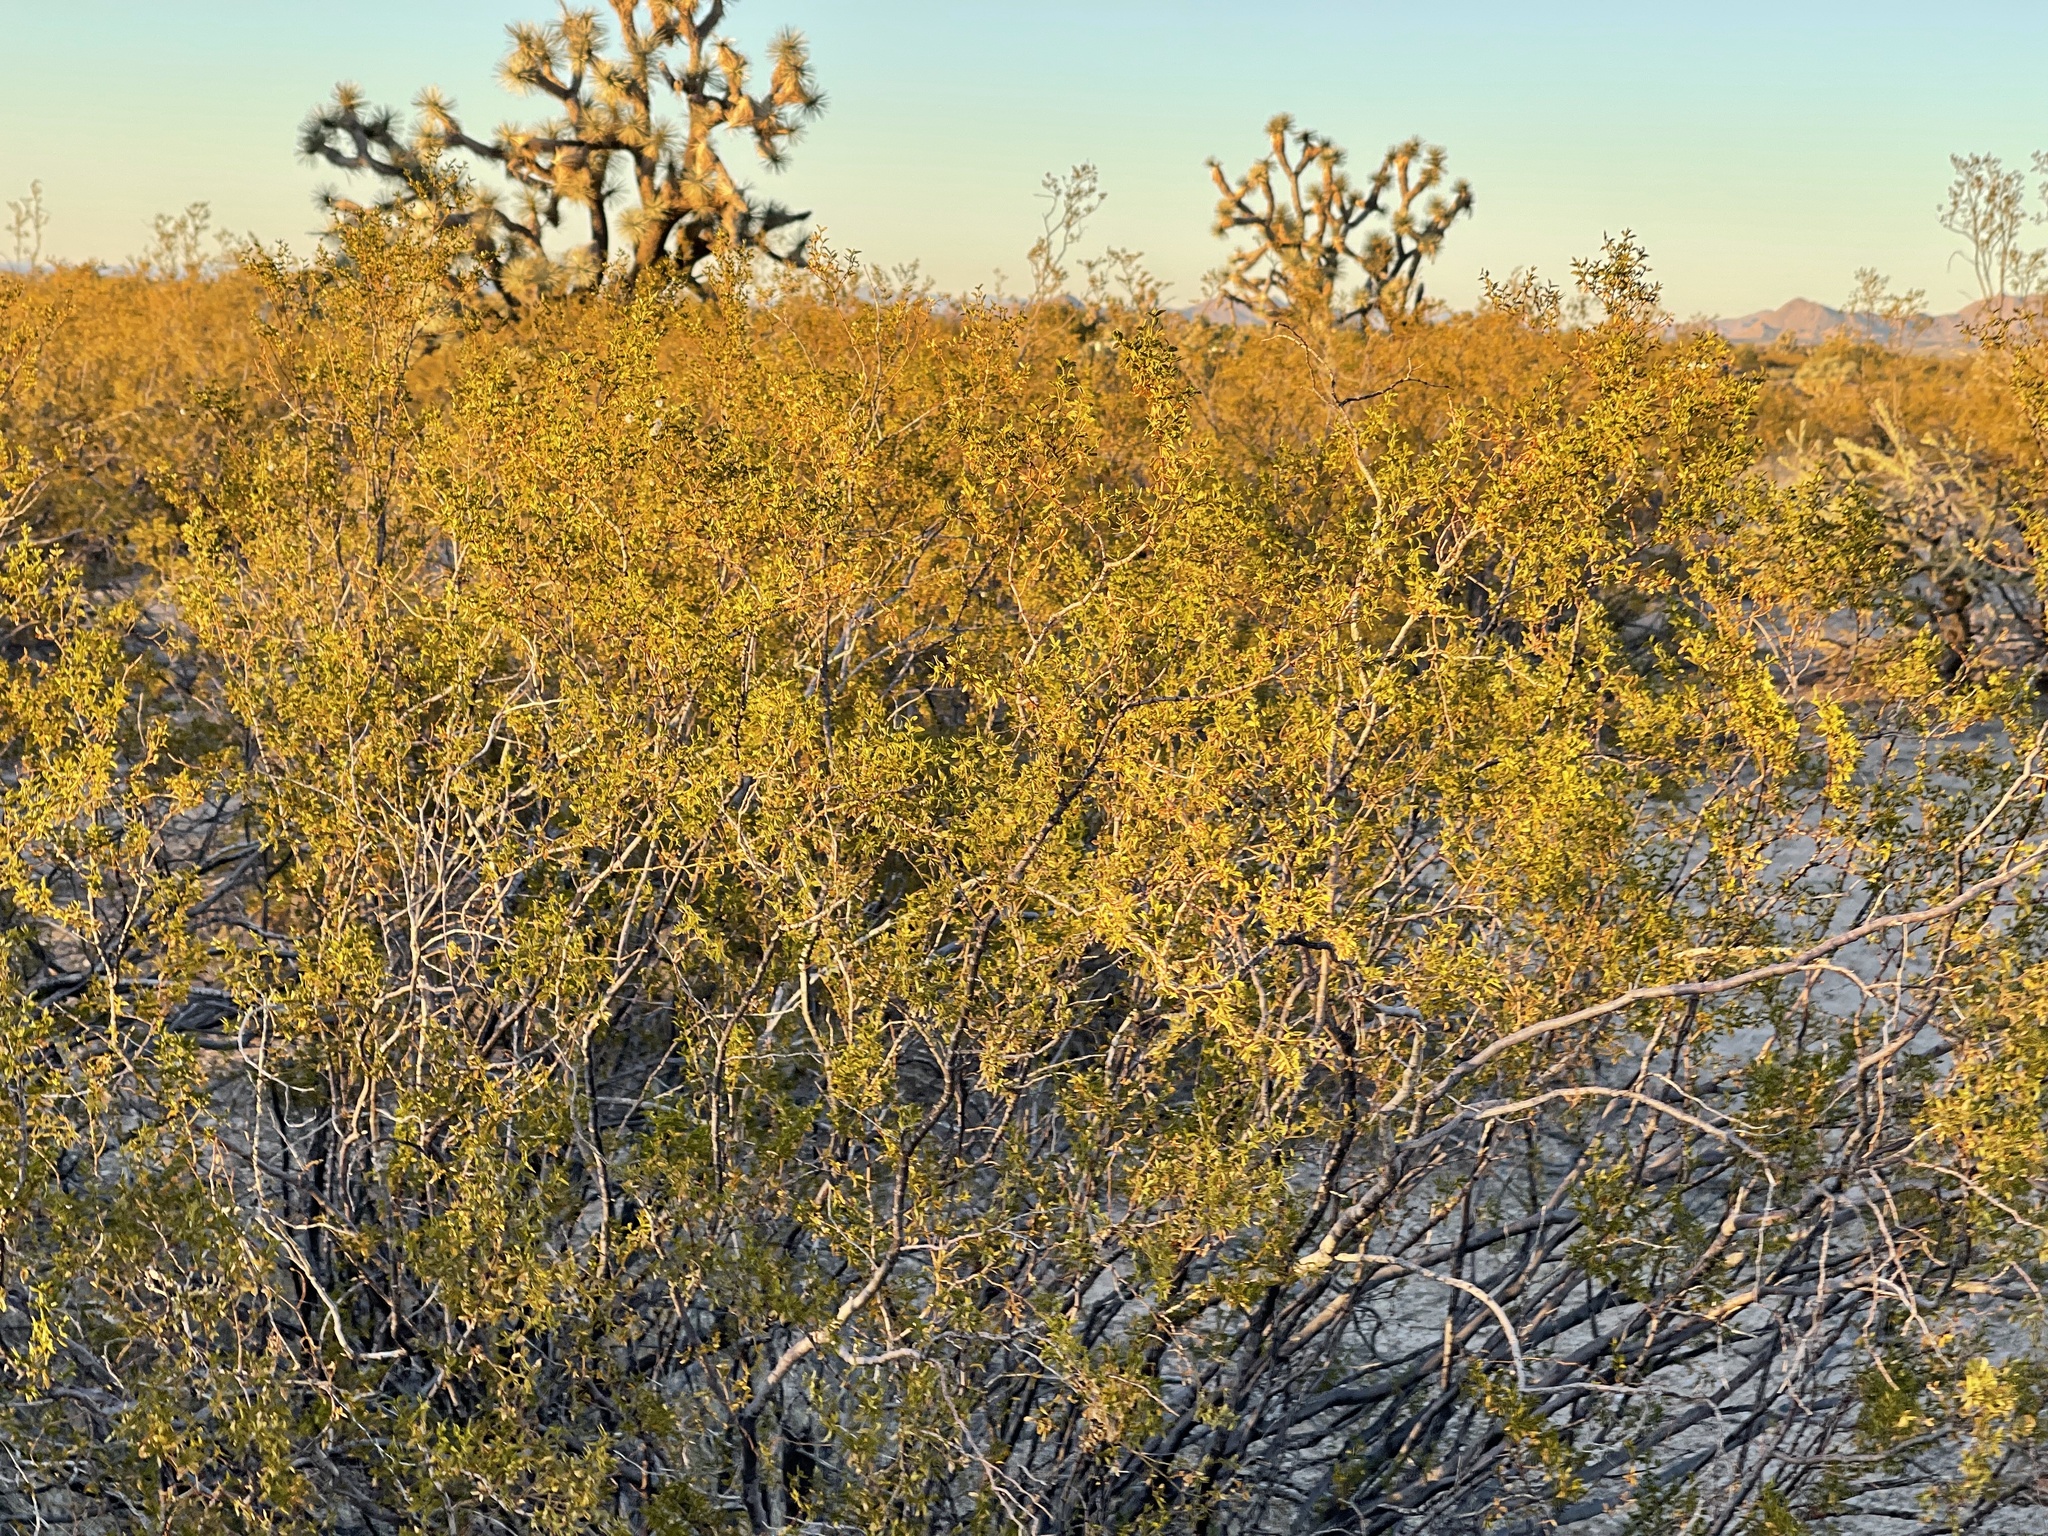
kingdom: Plantae
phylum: Tracheophyta
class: Magnoliopsida
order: Zygophyllales
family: Zygophyllaceae
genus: Larrea
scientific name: Larrea tridentata
